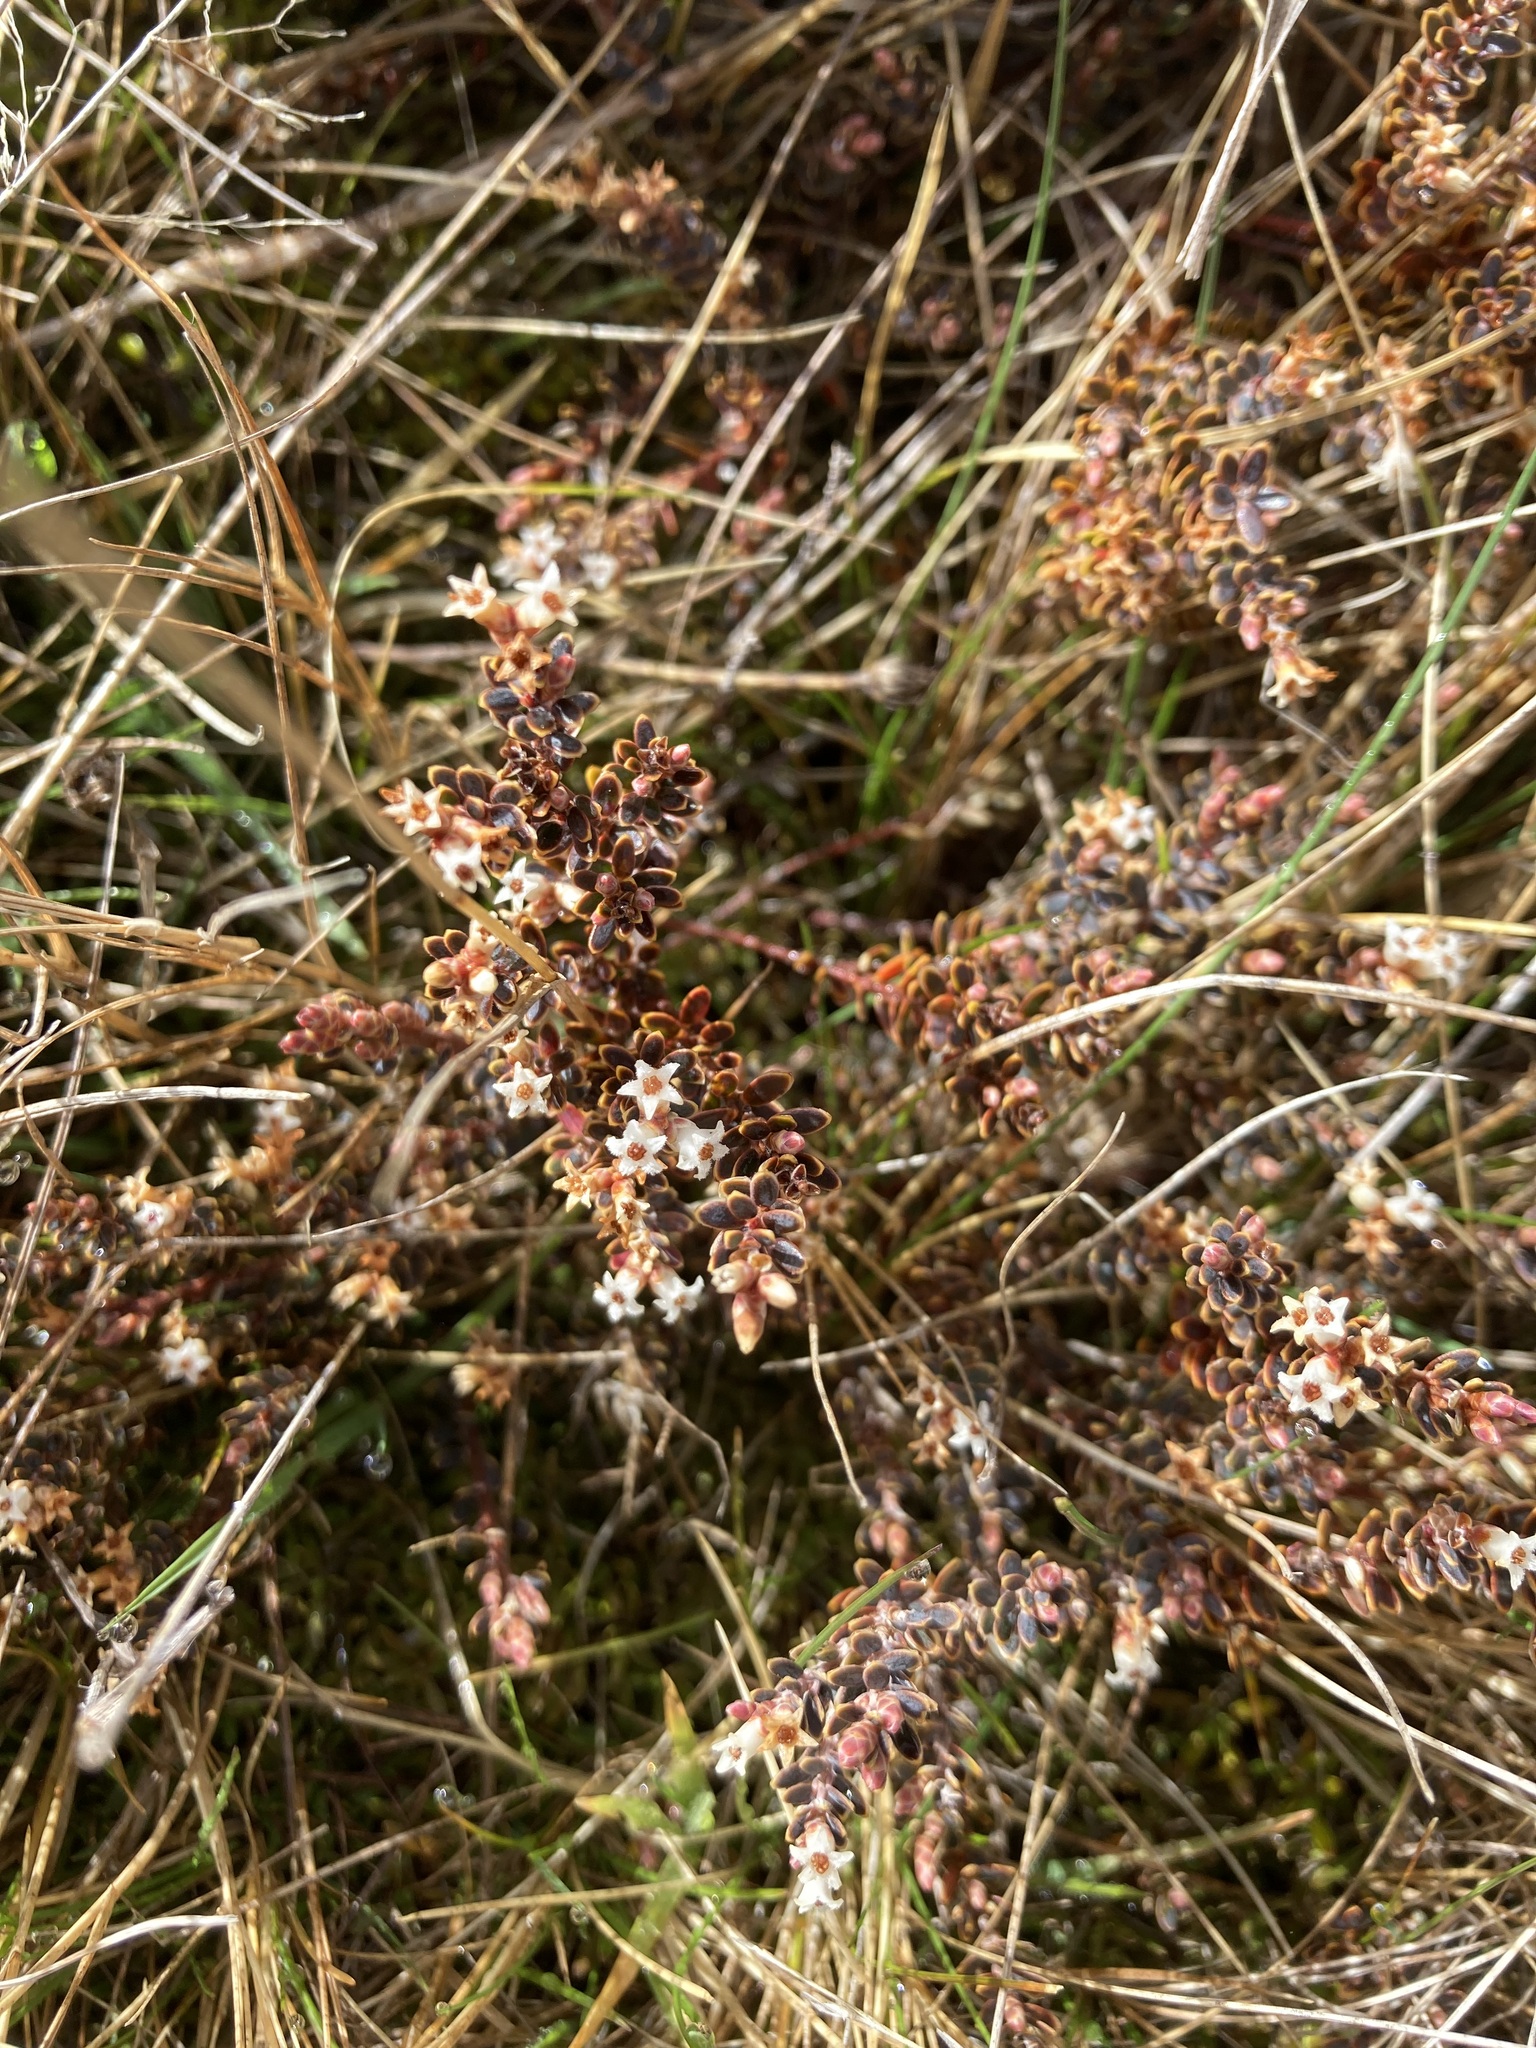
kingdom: Plantae
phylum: Tracheophyta
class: Magnoliopsida
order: Ericales
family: Ericaceae
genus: Acrothamnus
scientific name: Acrothamnus colensoi
